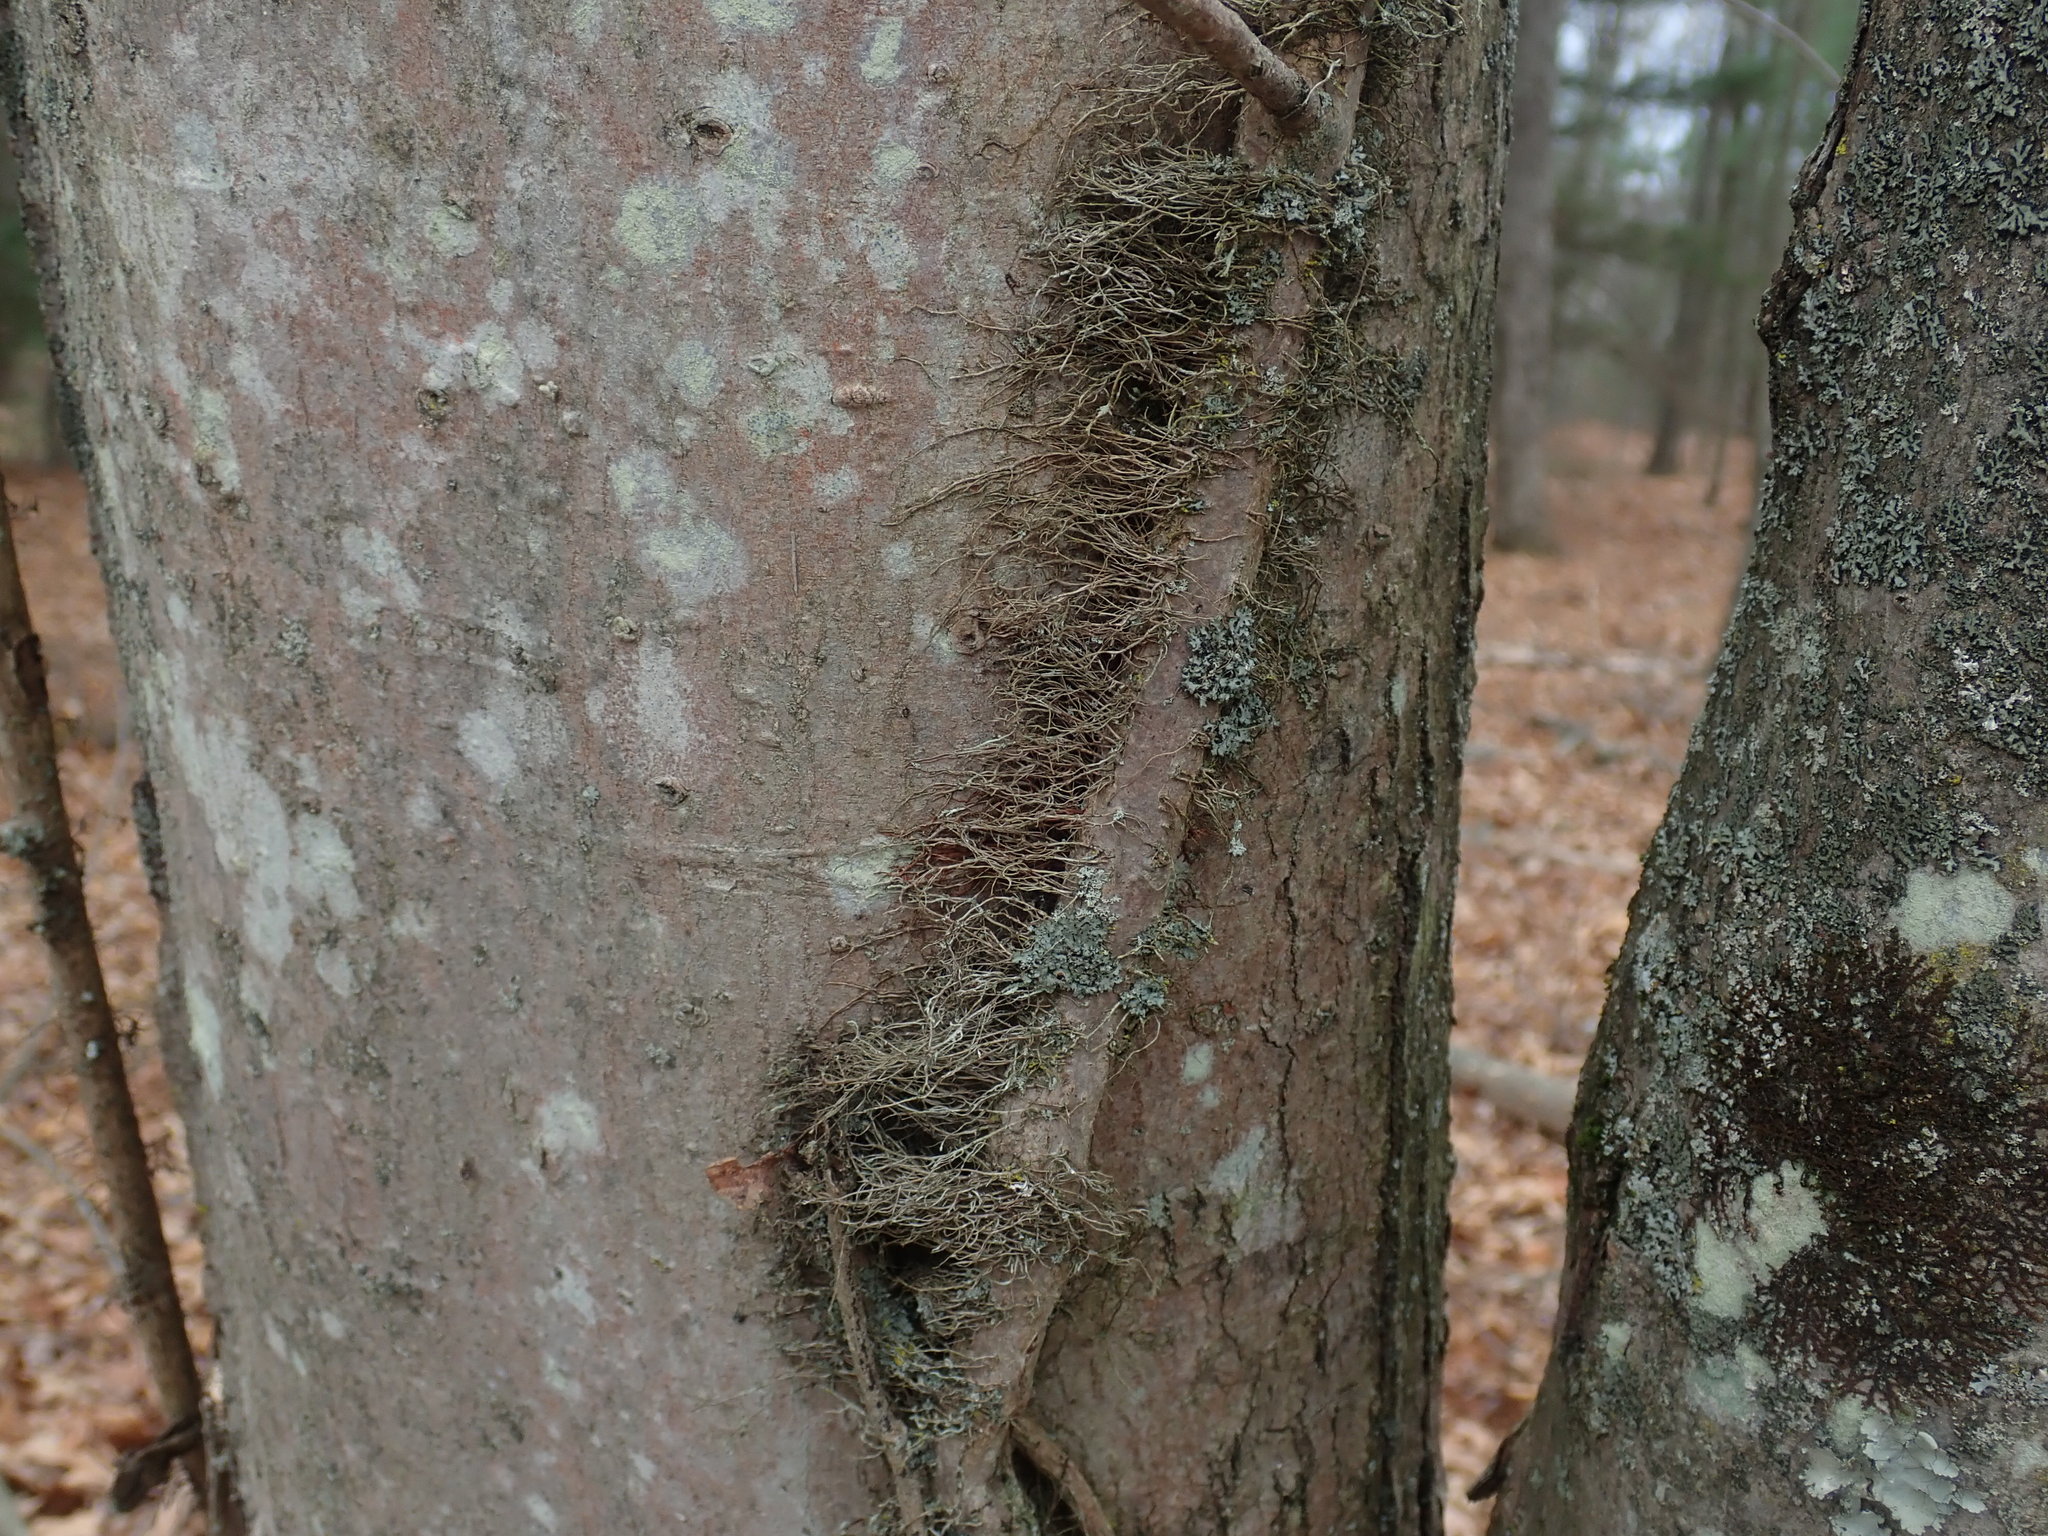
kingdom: Plantae
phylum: Tracheophyta
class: Magnoliopsida
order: Sapindales
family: Anacardiaceae
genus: Toxicodendron
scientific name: Toxicodendron radicans
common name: Poison ivy
